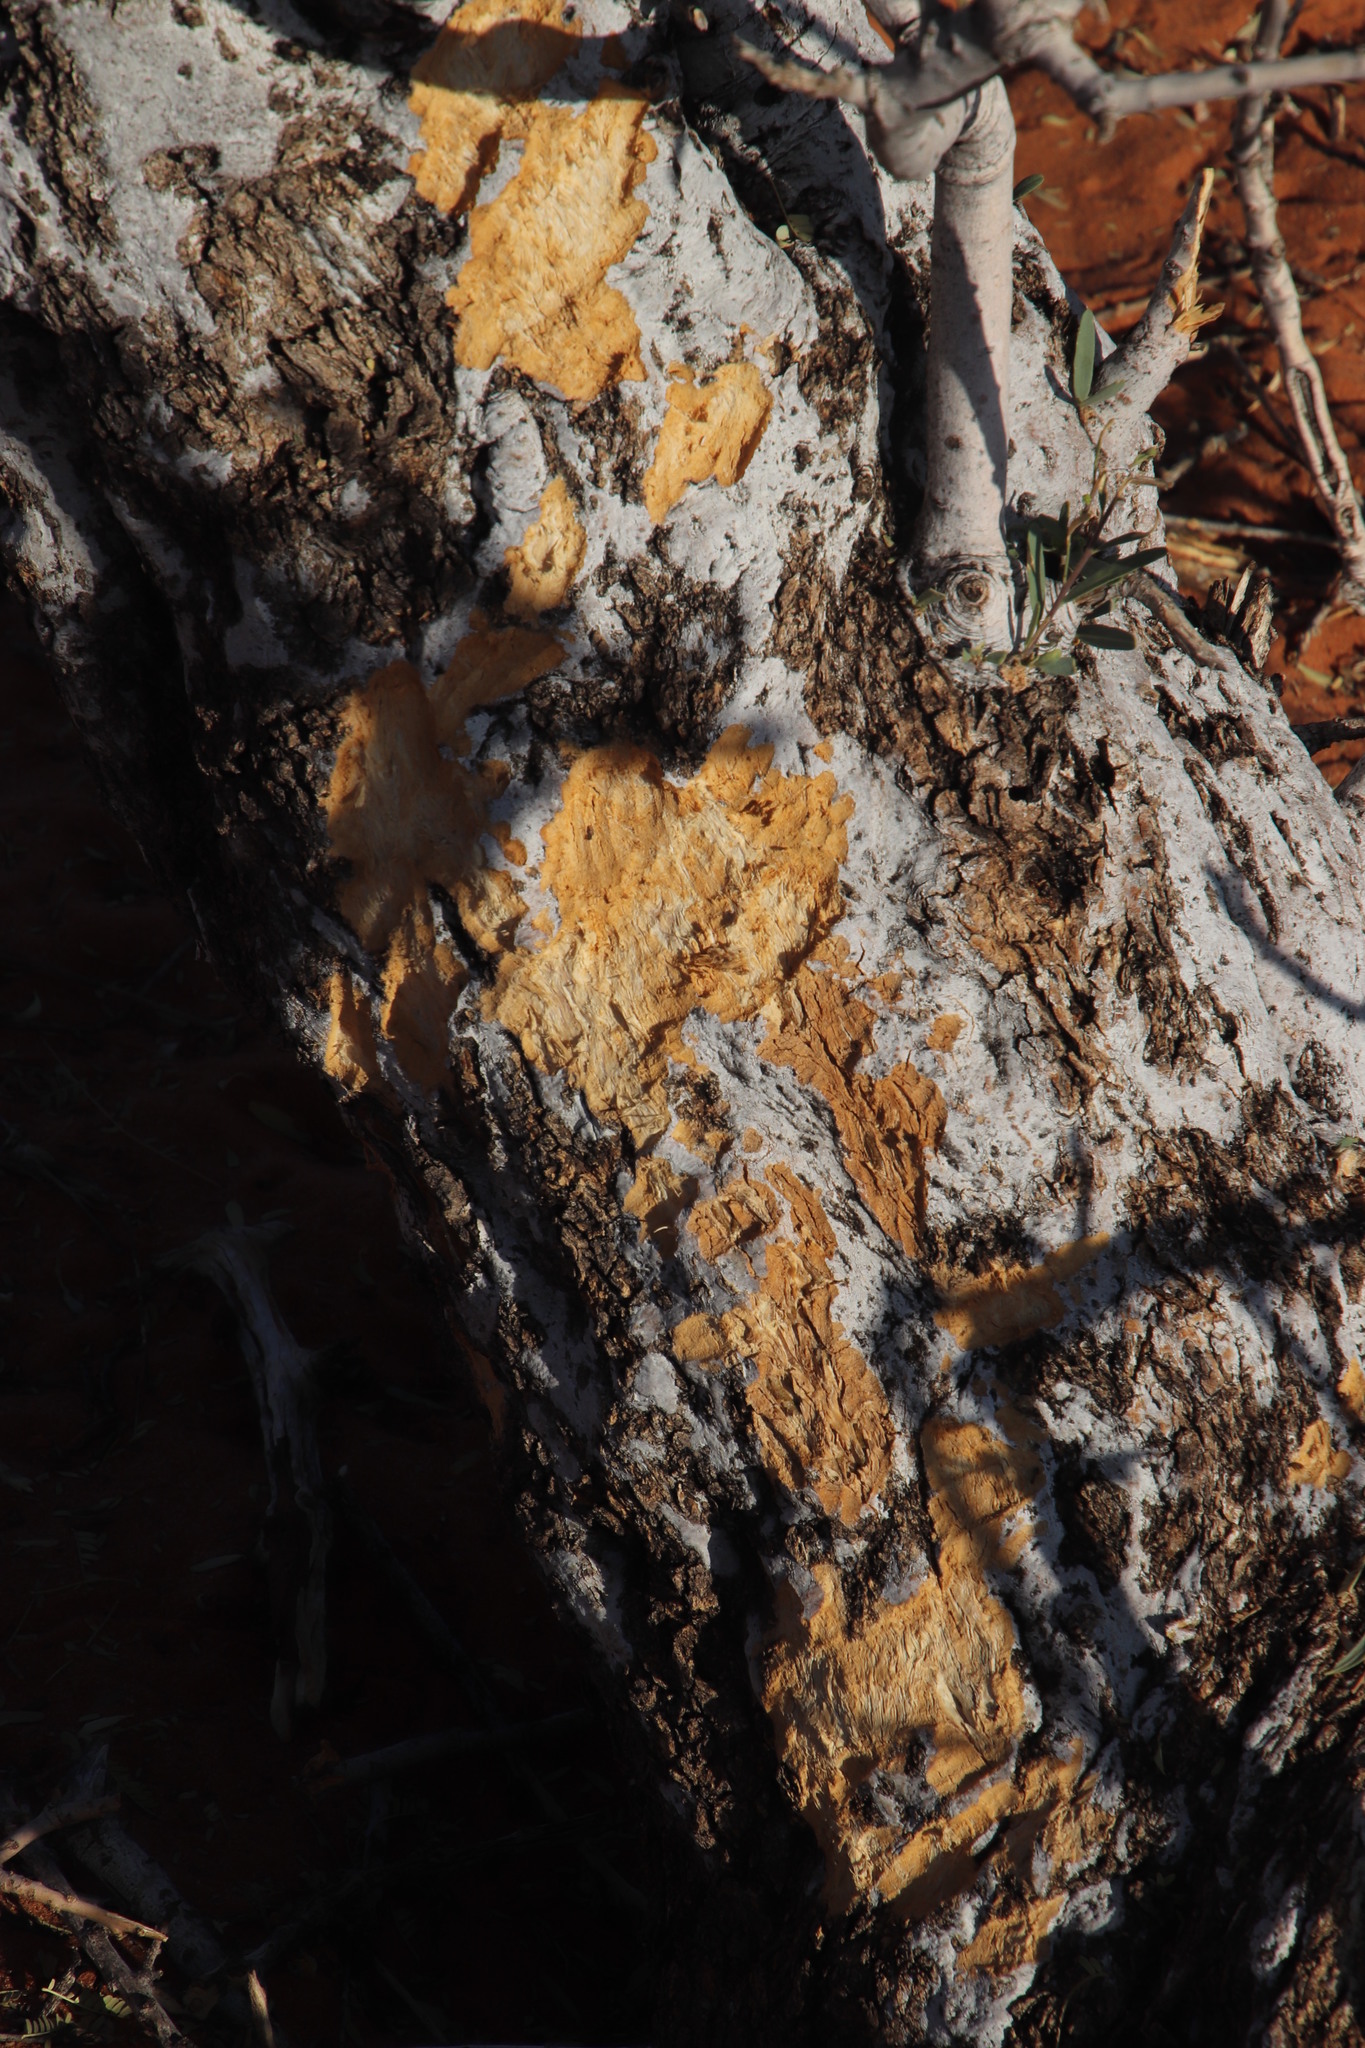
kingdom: Plantae
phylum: Tracheophyta
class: Magnoliopsida
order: Brassicales
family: Capparaceae
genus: Boscia
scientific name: Boscia albitrunca
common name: Caper bush
